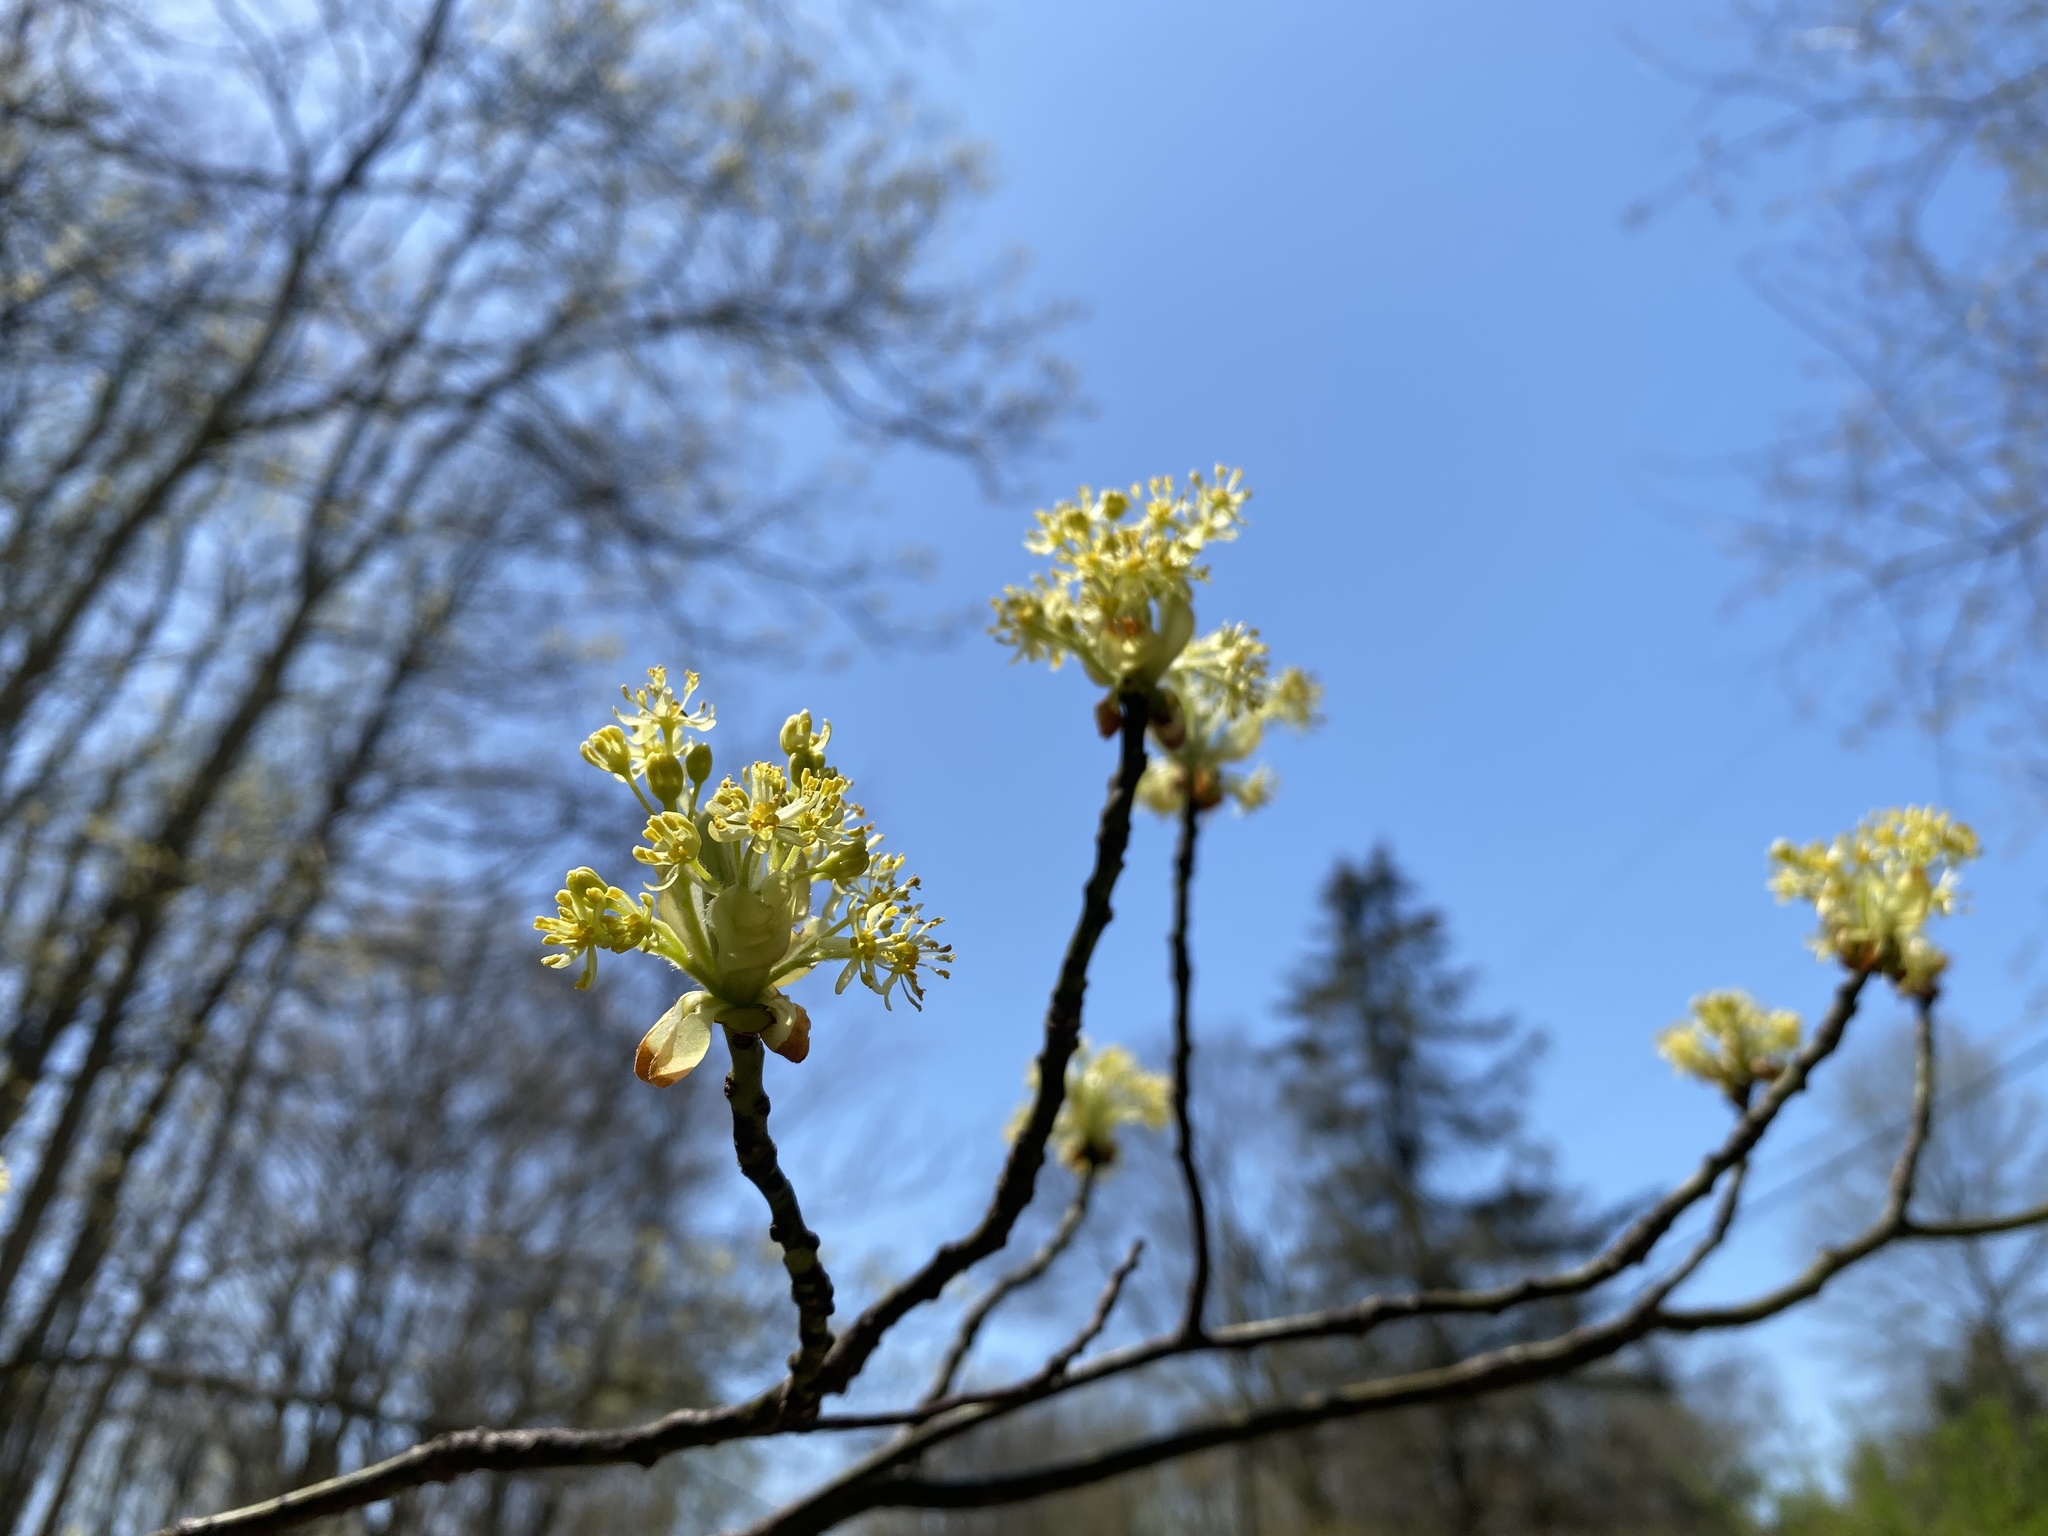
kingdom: Plantae
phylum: Tracheophyta
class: Magnoliopsida
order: Laurales
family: Lauraceae
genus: Sassafras
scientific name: Sassafras albidum
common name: Sassafras
